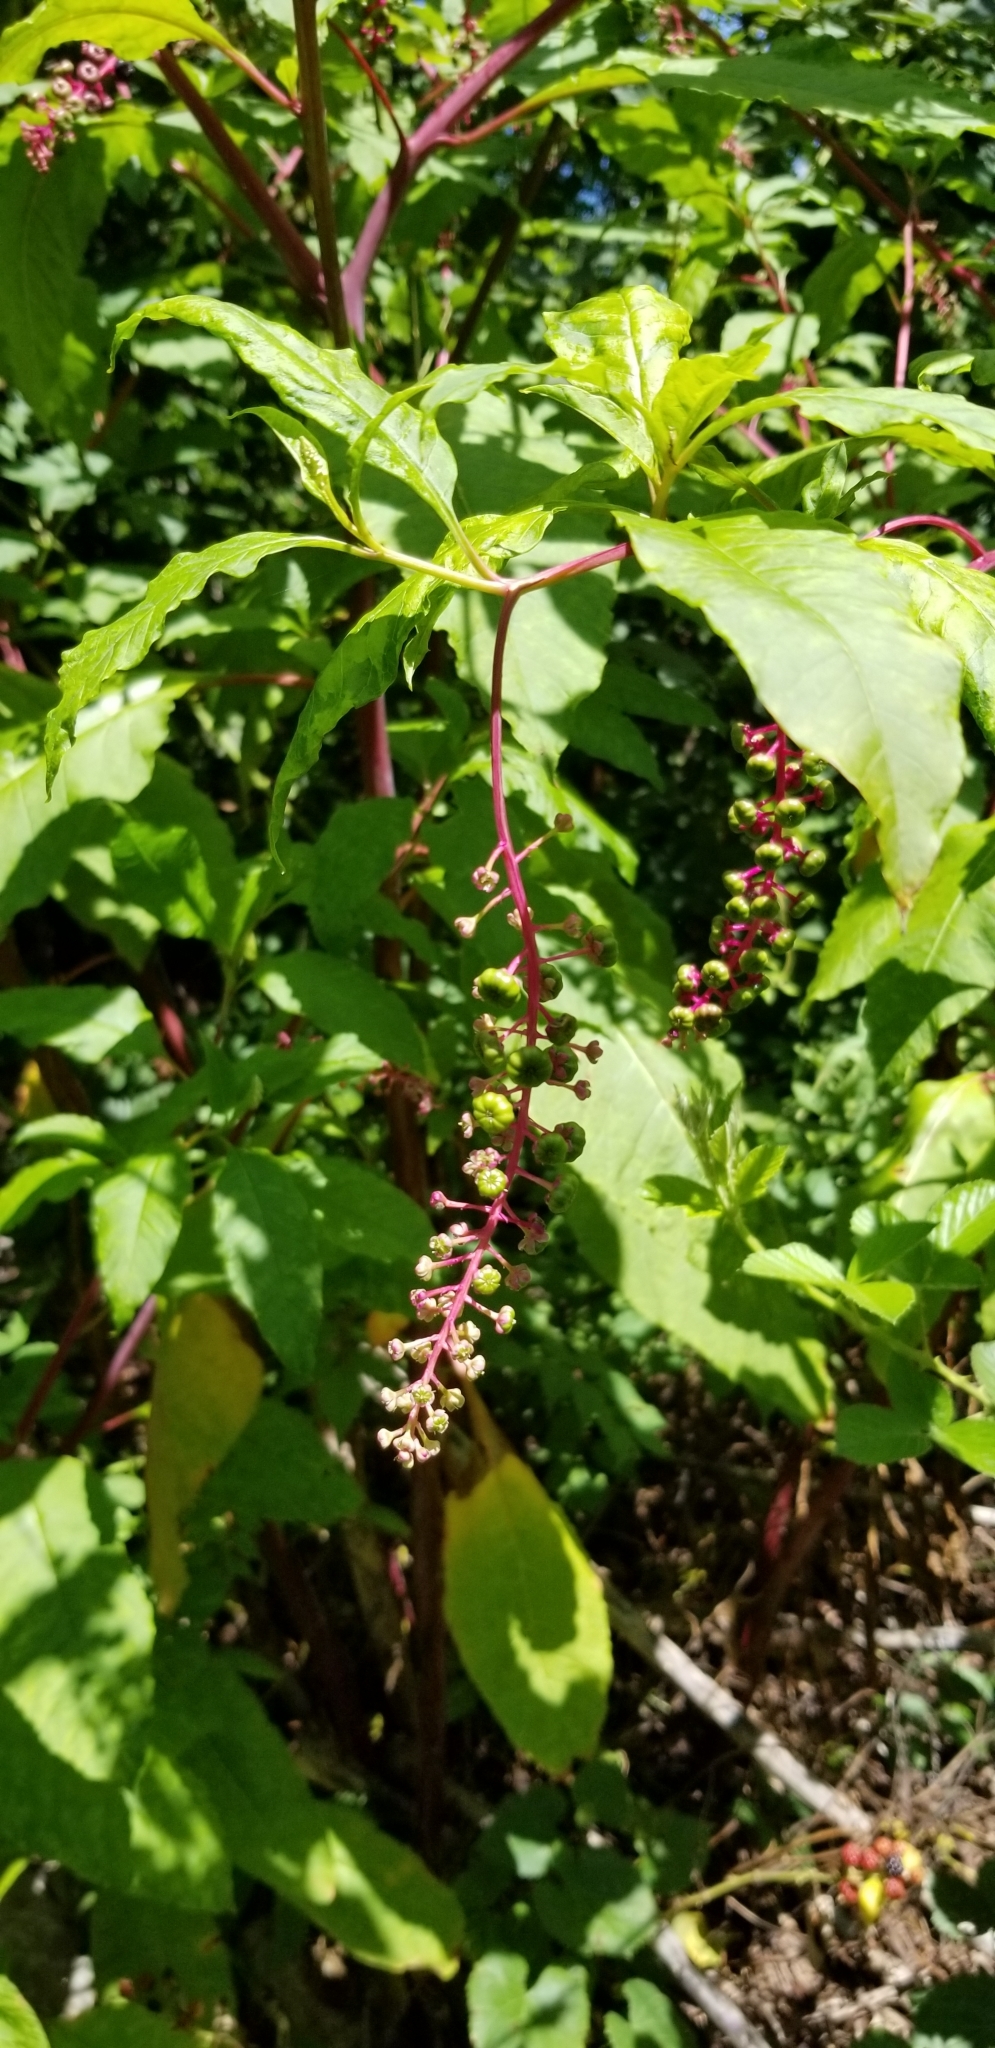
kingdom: Plantae
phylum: Tracheophyta
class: Magnoliopsida
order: Caryophyllales
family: Phytolaccaceae
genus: Phytolacca
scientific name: Phytolacca americana
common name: American pokeweed
